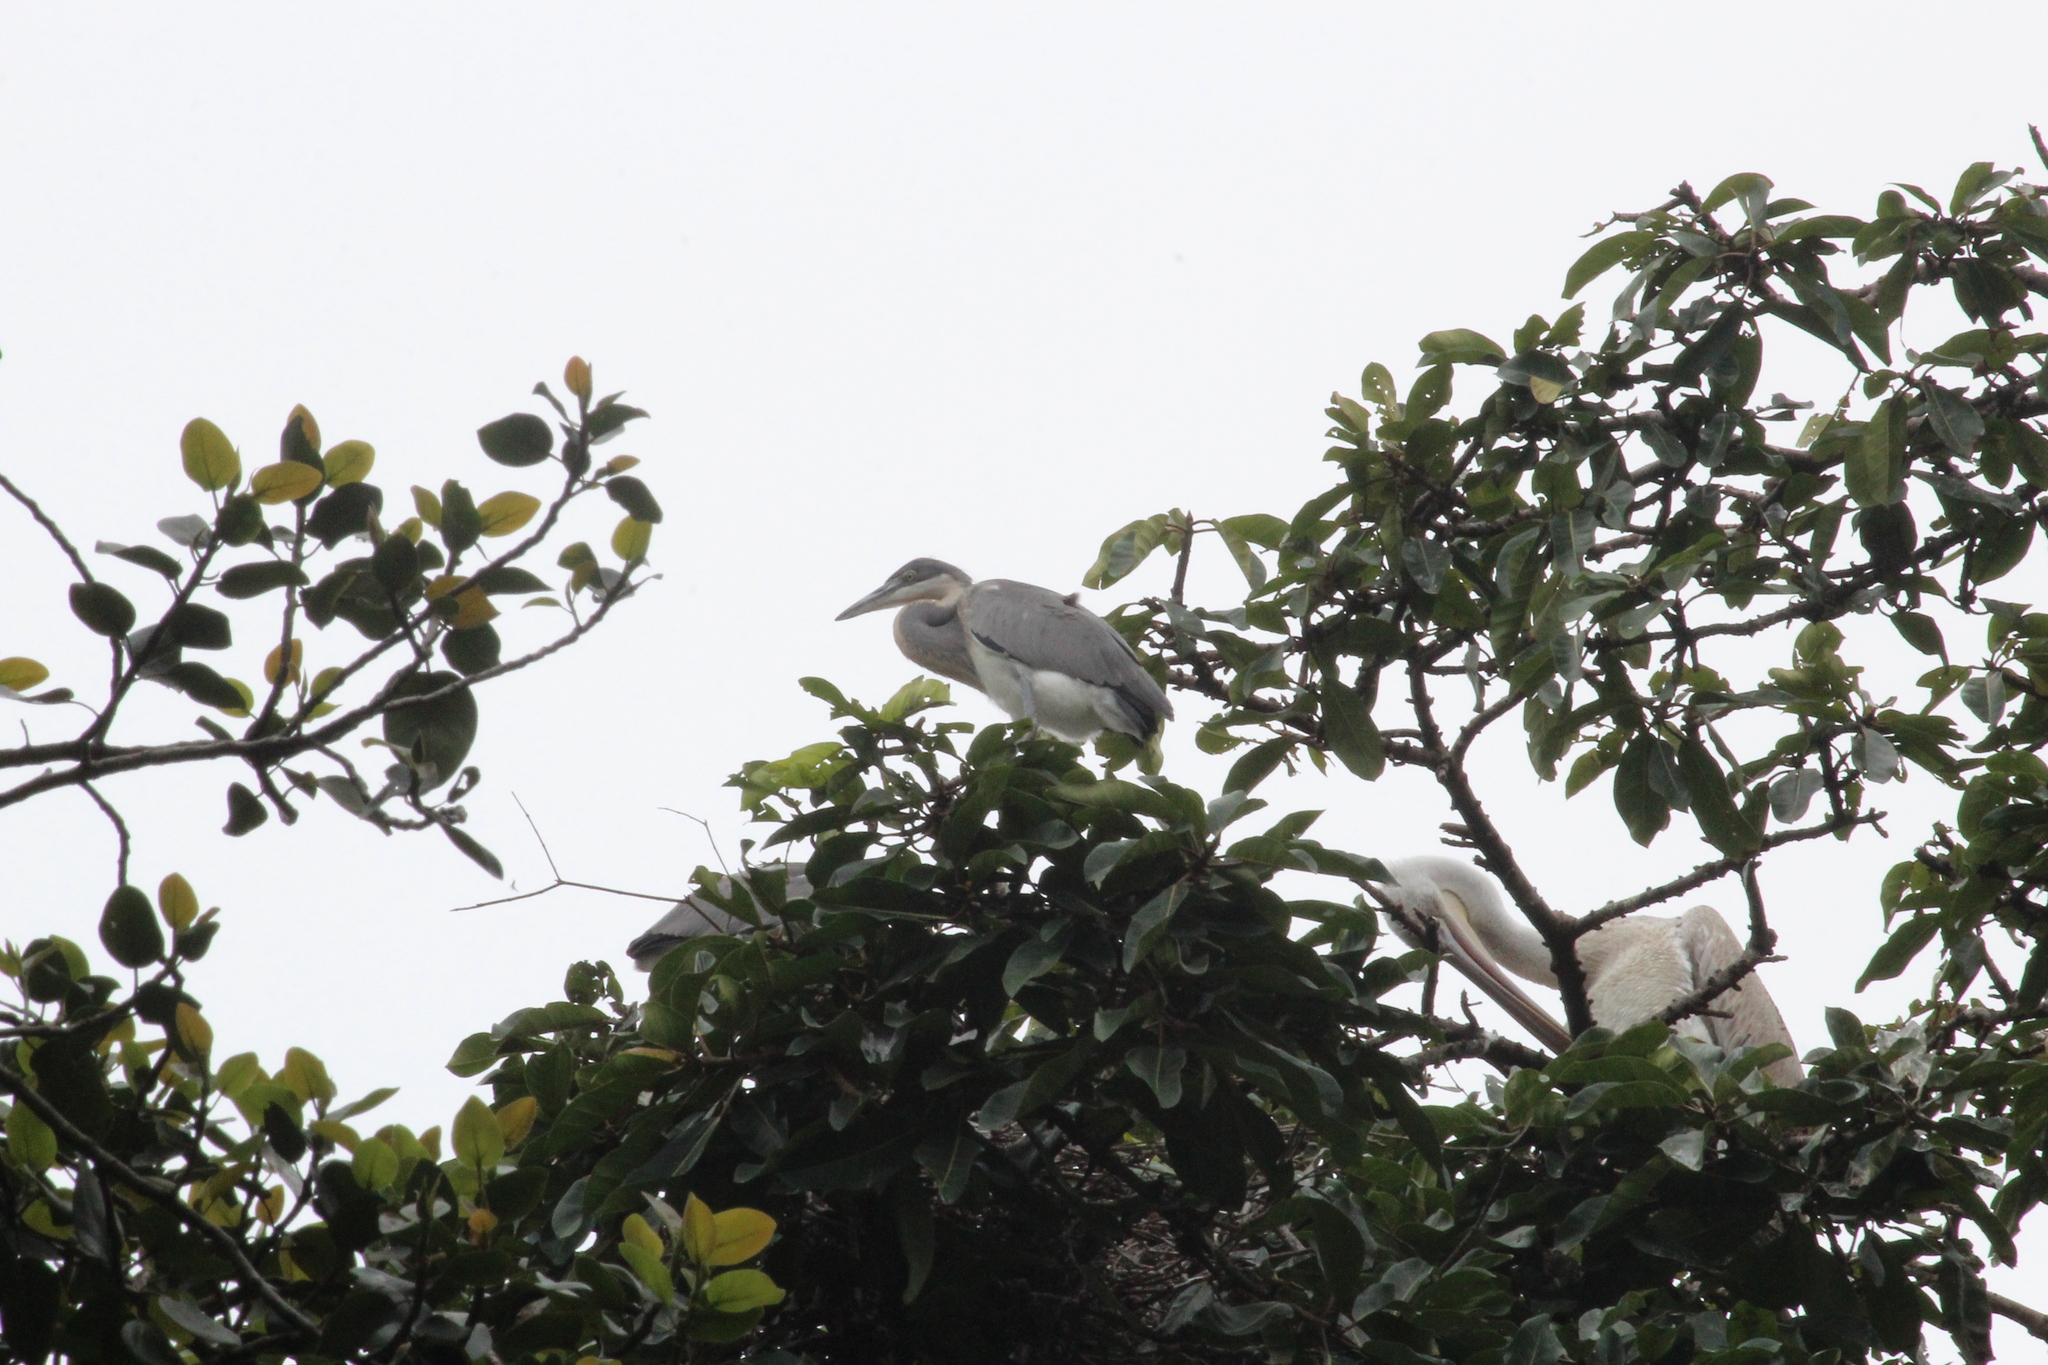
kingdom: Animalia
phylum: Chordata
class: Aves
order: Pelecaniformes
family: Ardeidae
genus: Ardea
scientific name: Ardea melanocephala
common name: Black-headed heron
